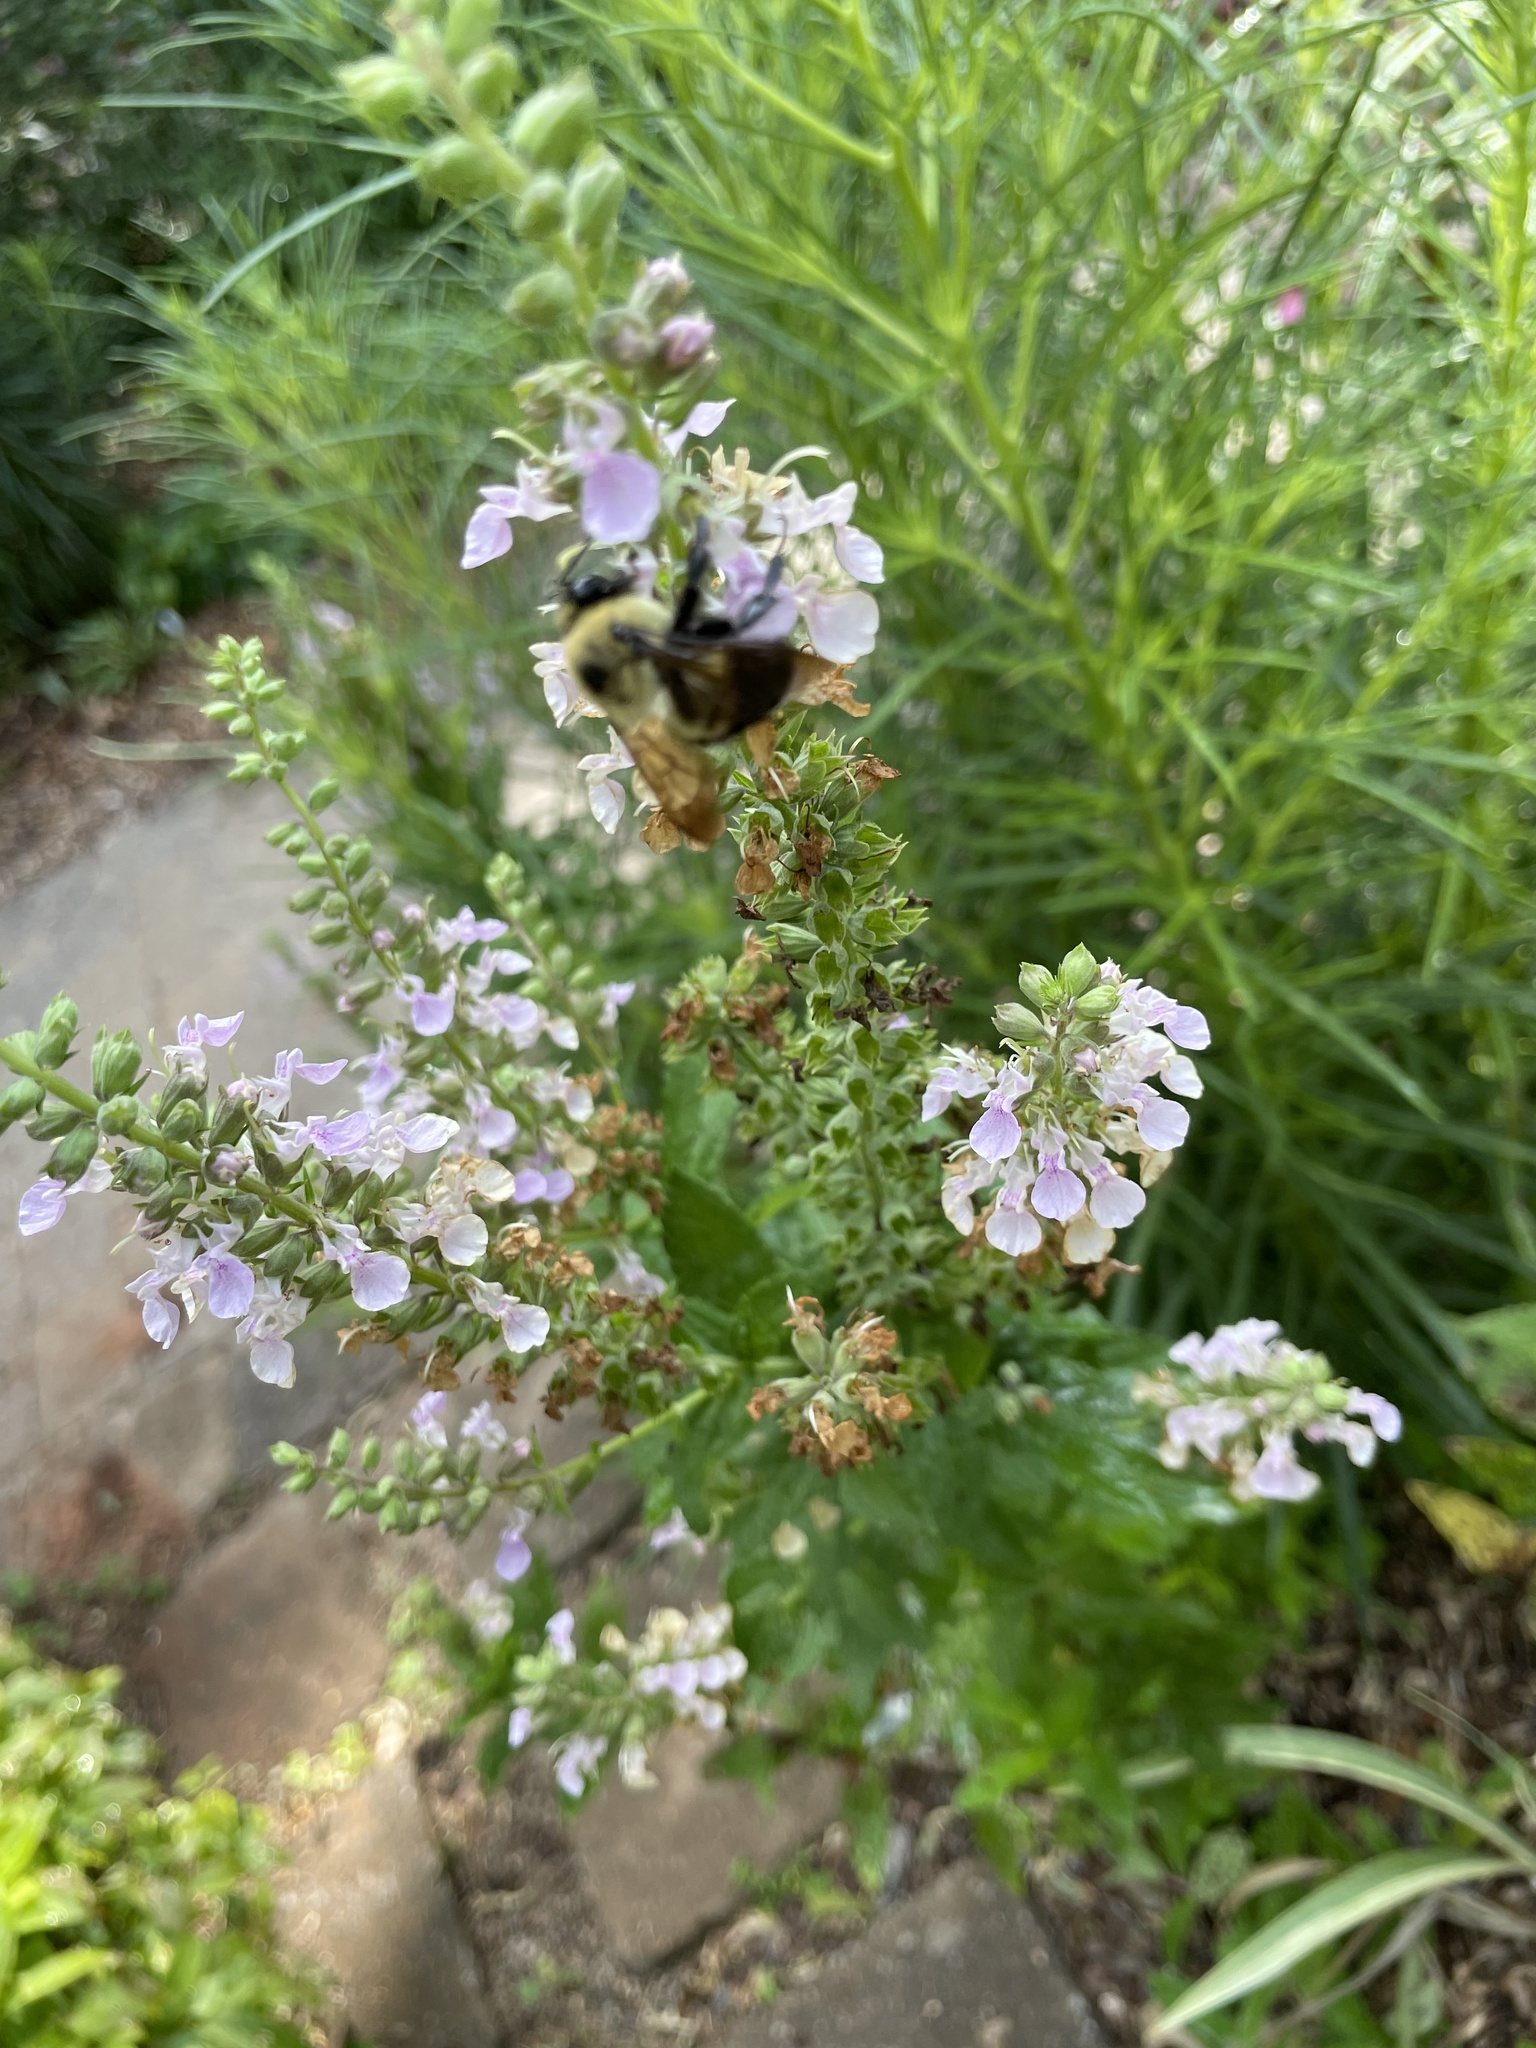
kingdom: Animalia
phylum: Arthropoda
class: Insecta
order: Hymenoptera
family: Apidae
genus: Bombus
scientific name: Bombus griseocollis
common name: Brown-belted bumble bee
